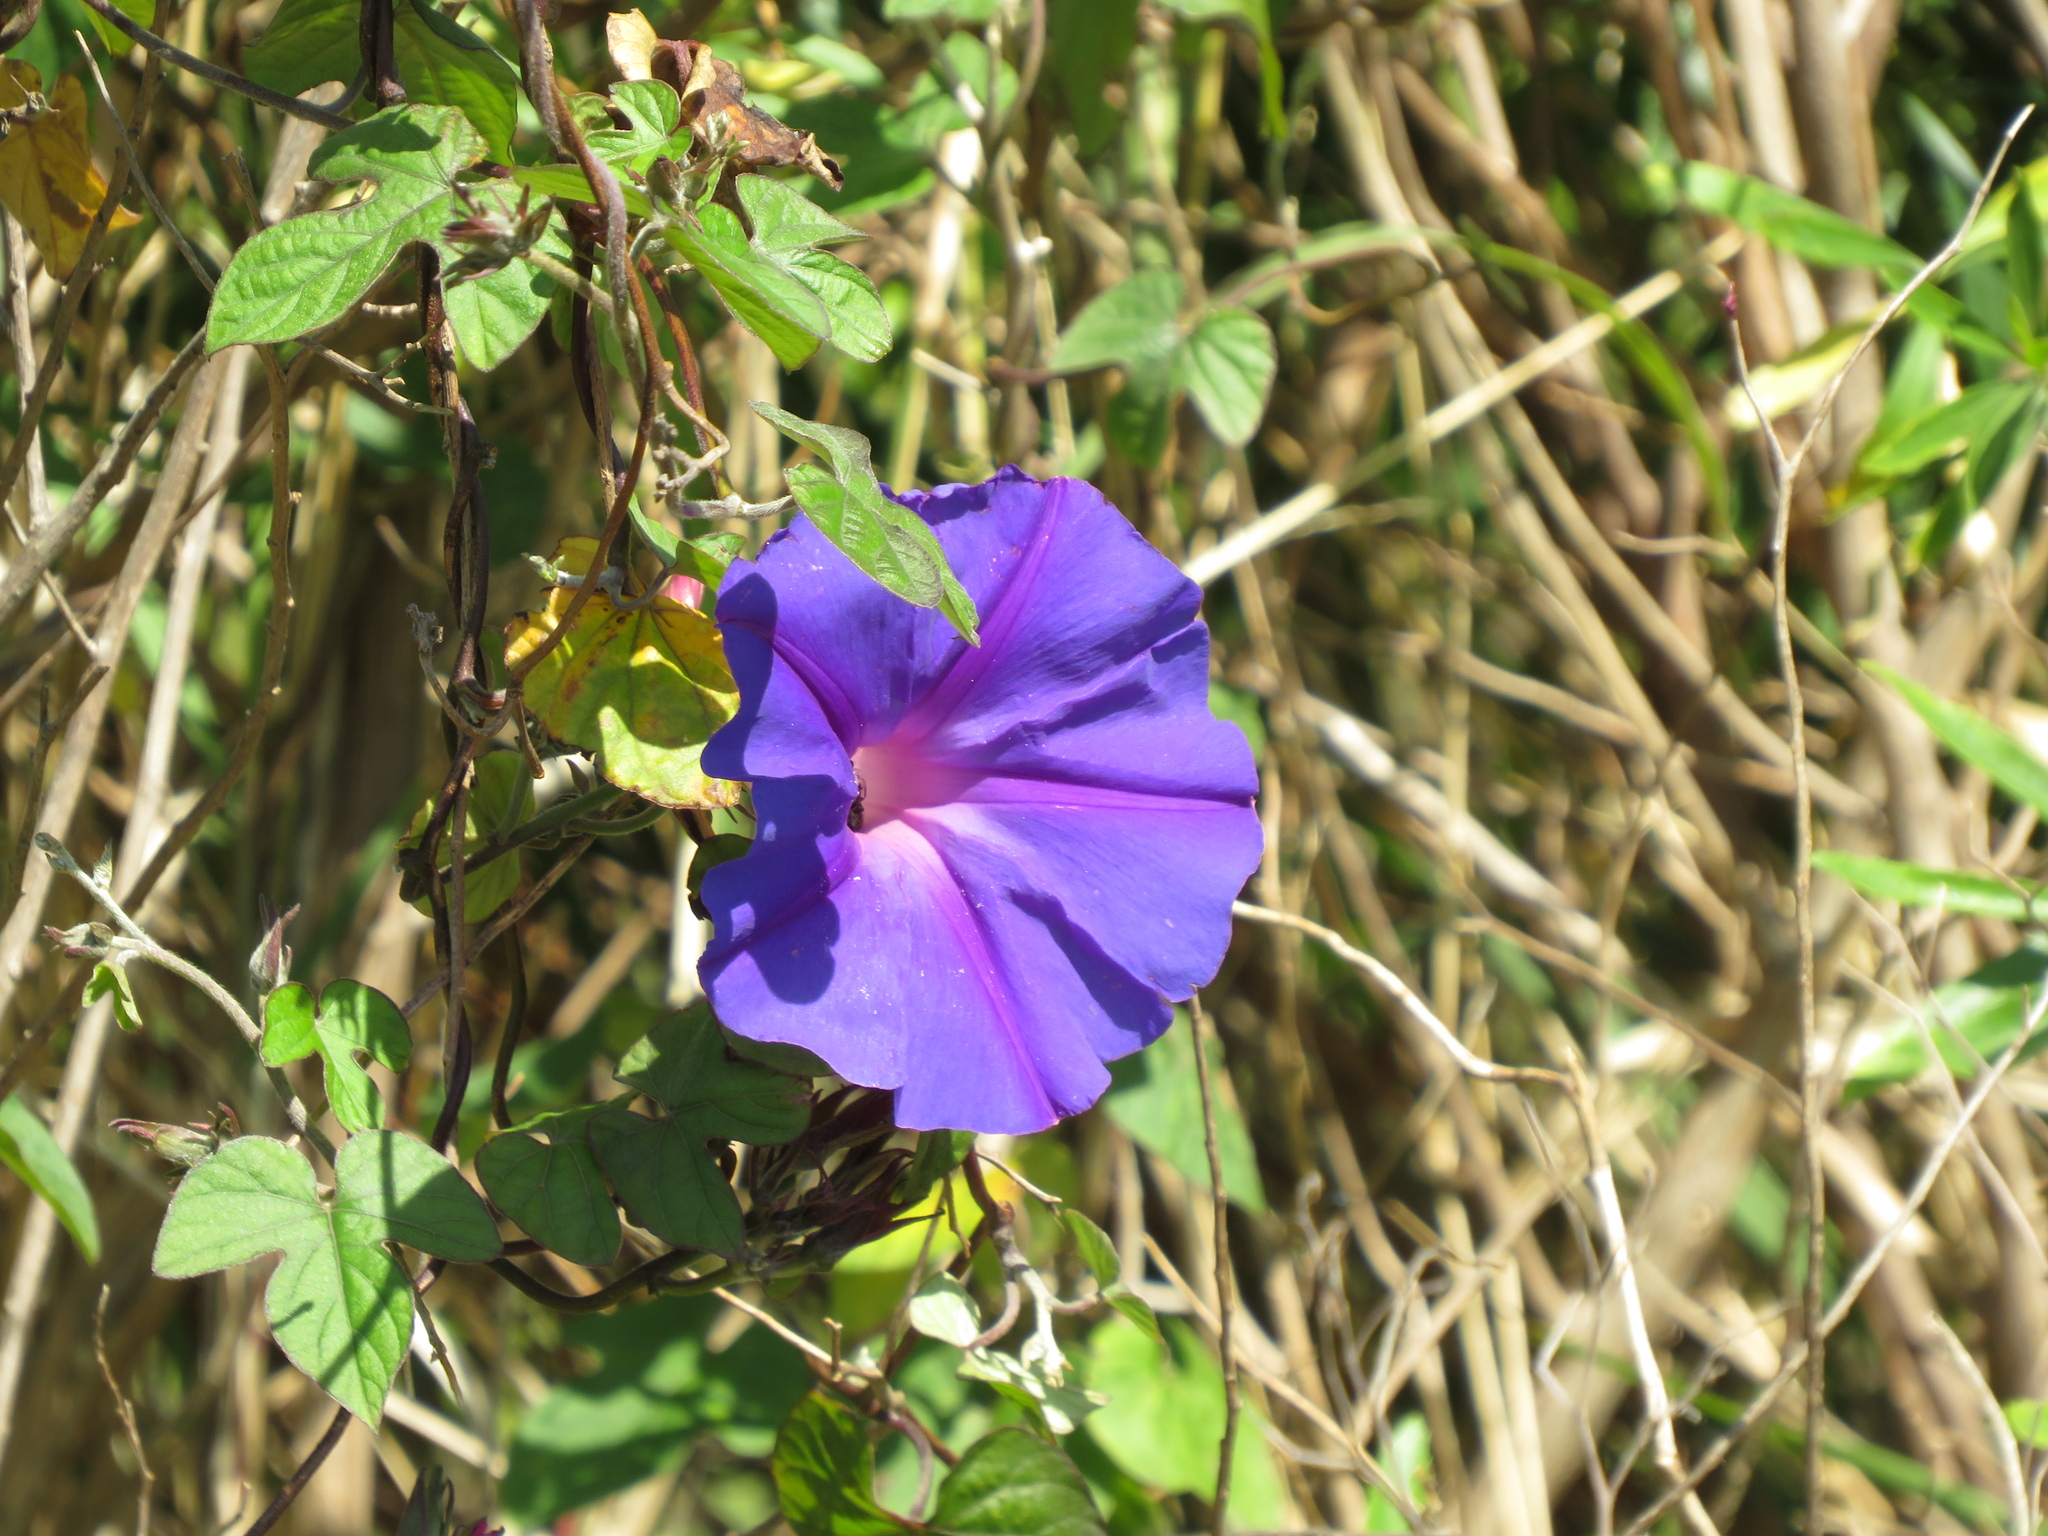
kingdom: Plantae
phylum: Tracheophyta
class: Magnoliopsida
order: Solanales
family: Convolvulaceae
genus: Ipomoea
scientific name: Ipomoea indica
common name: Blue dawnflower
